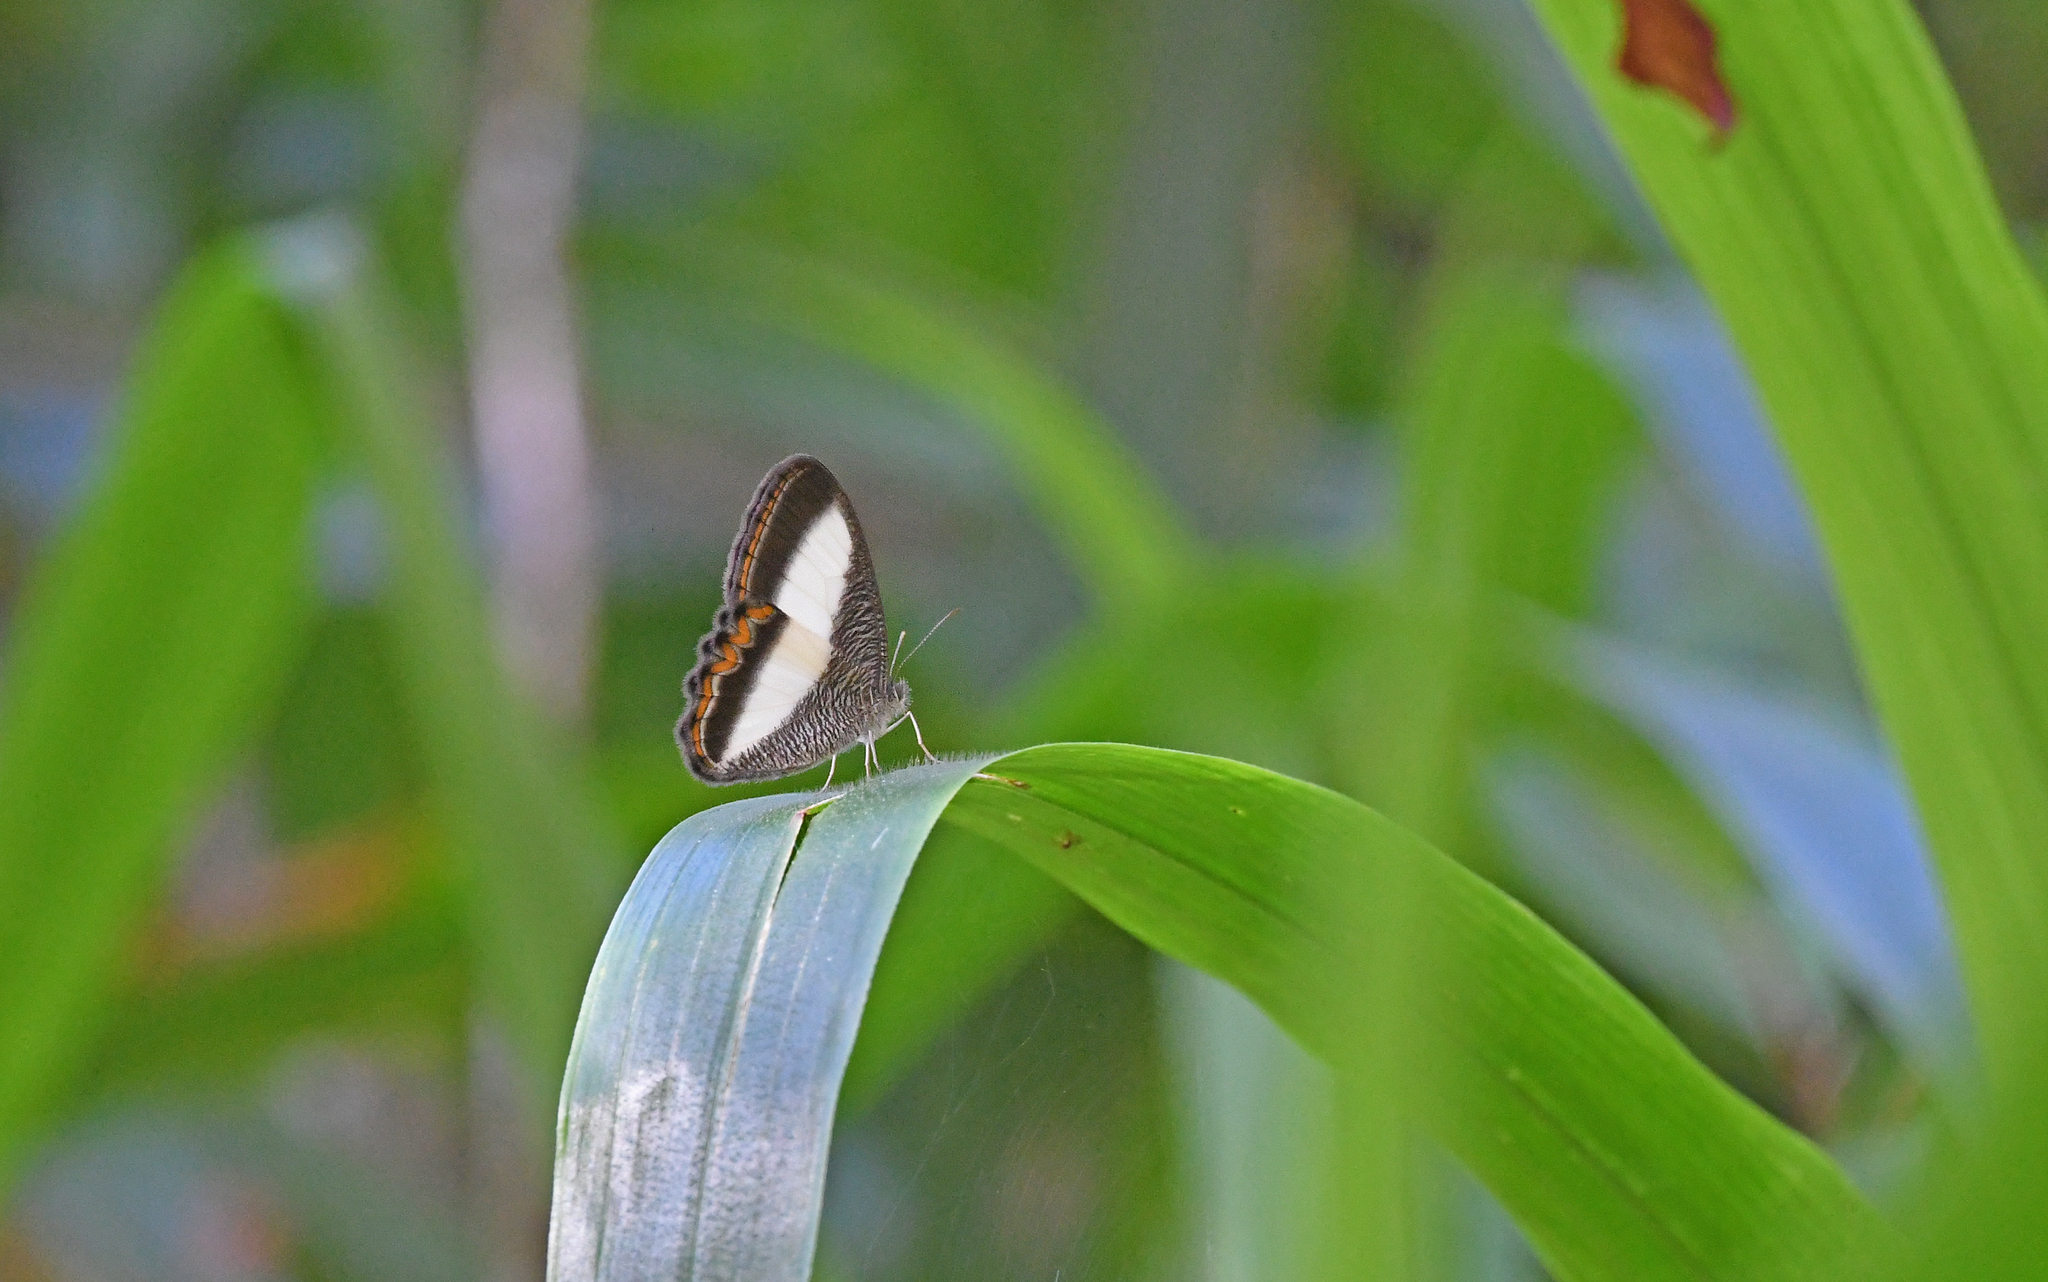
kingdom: Animalia
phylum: Arthropoda
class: Insecta
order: Lepidoptera
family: Nymphalidae
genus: Oressinoma
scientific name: Oressinoma typhla
